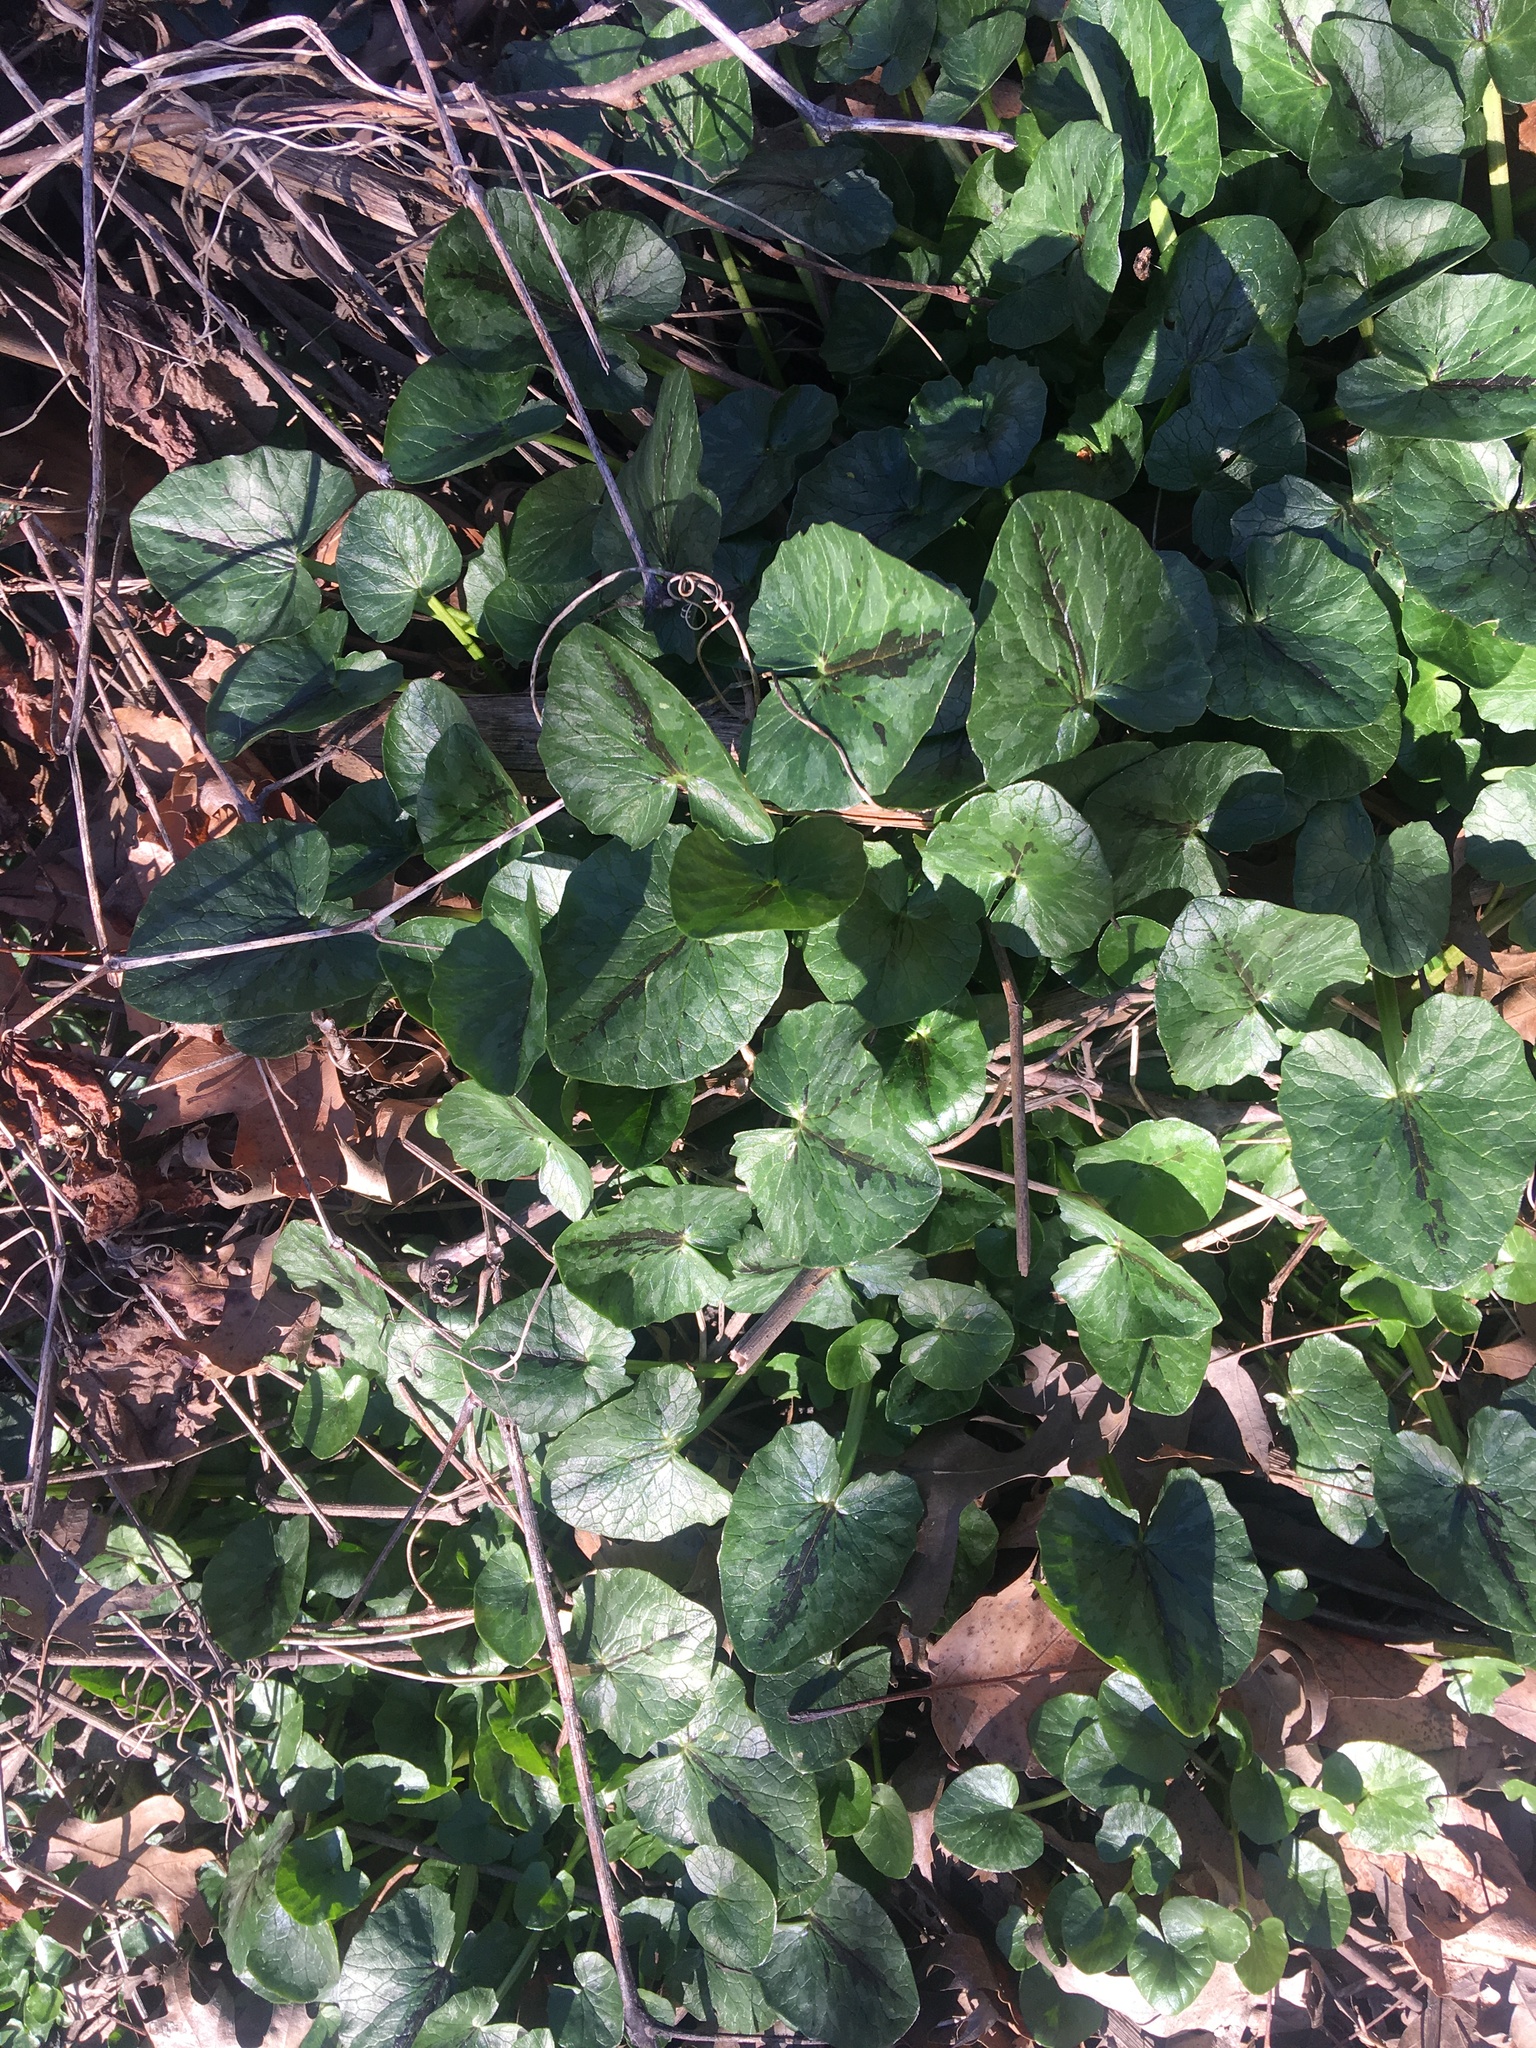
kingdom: Plantae
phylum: Tracheophyta
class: Magnoliopsida
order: Ranunculales
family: Ranunculaceae
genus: Ficaria
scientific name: Ficaria verna
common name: Lesser celandine
